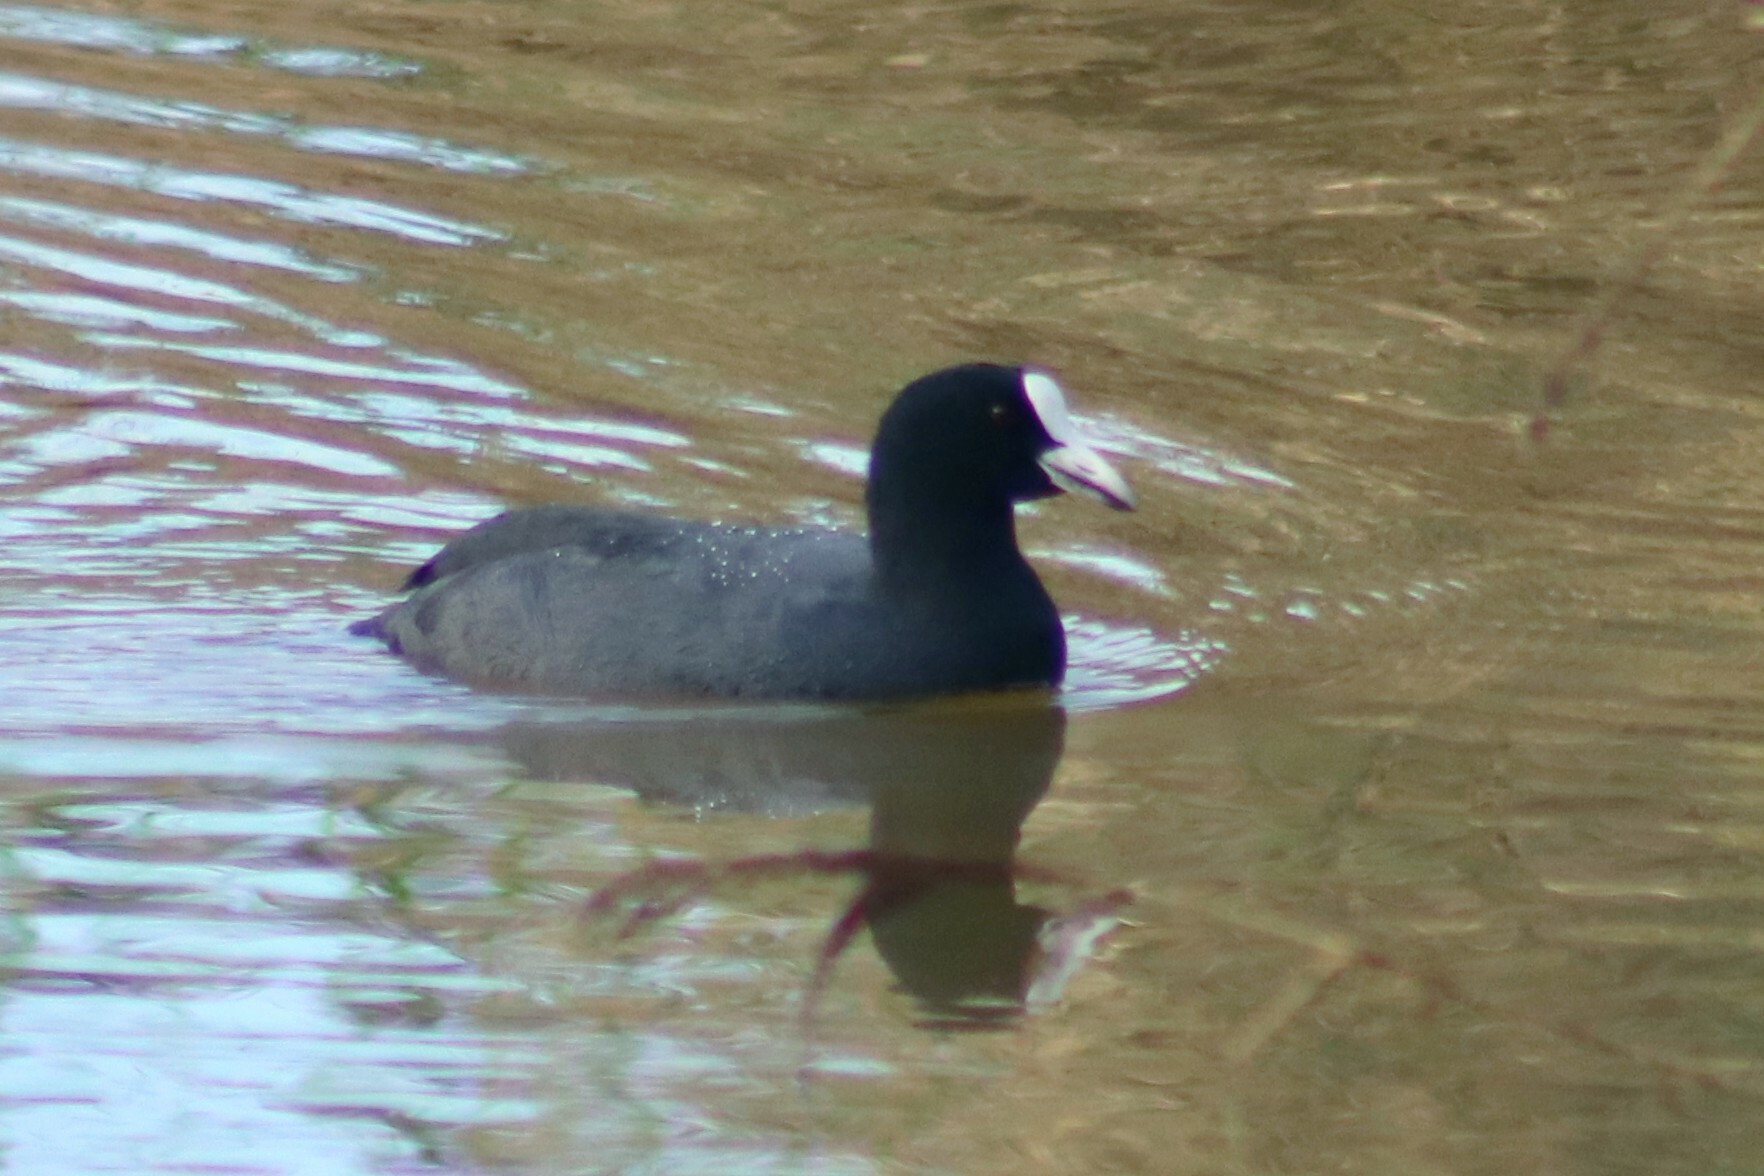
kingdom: Animalia
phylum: Chordata
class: Aves
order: Gruiformes
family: Rallidae
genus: Fulica
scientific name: Fulica atra
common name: Eurasian coot
